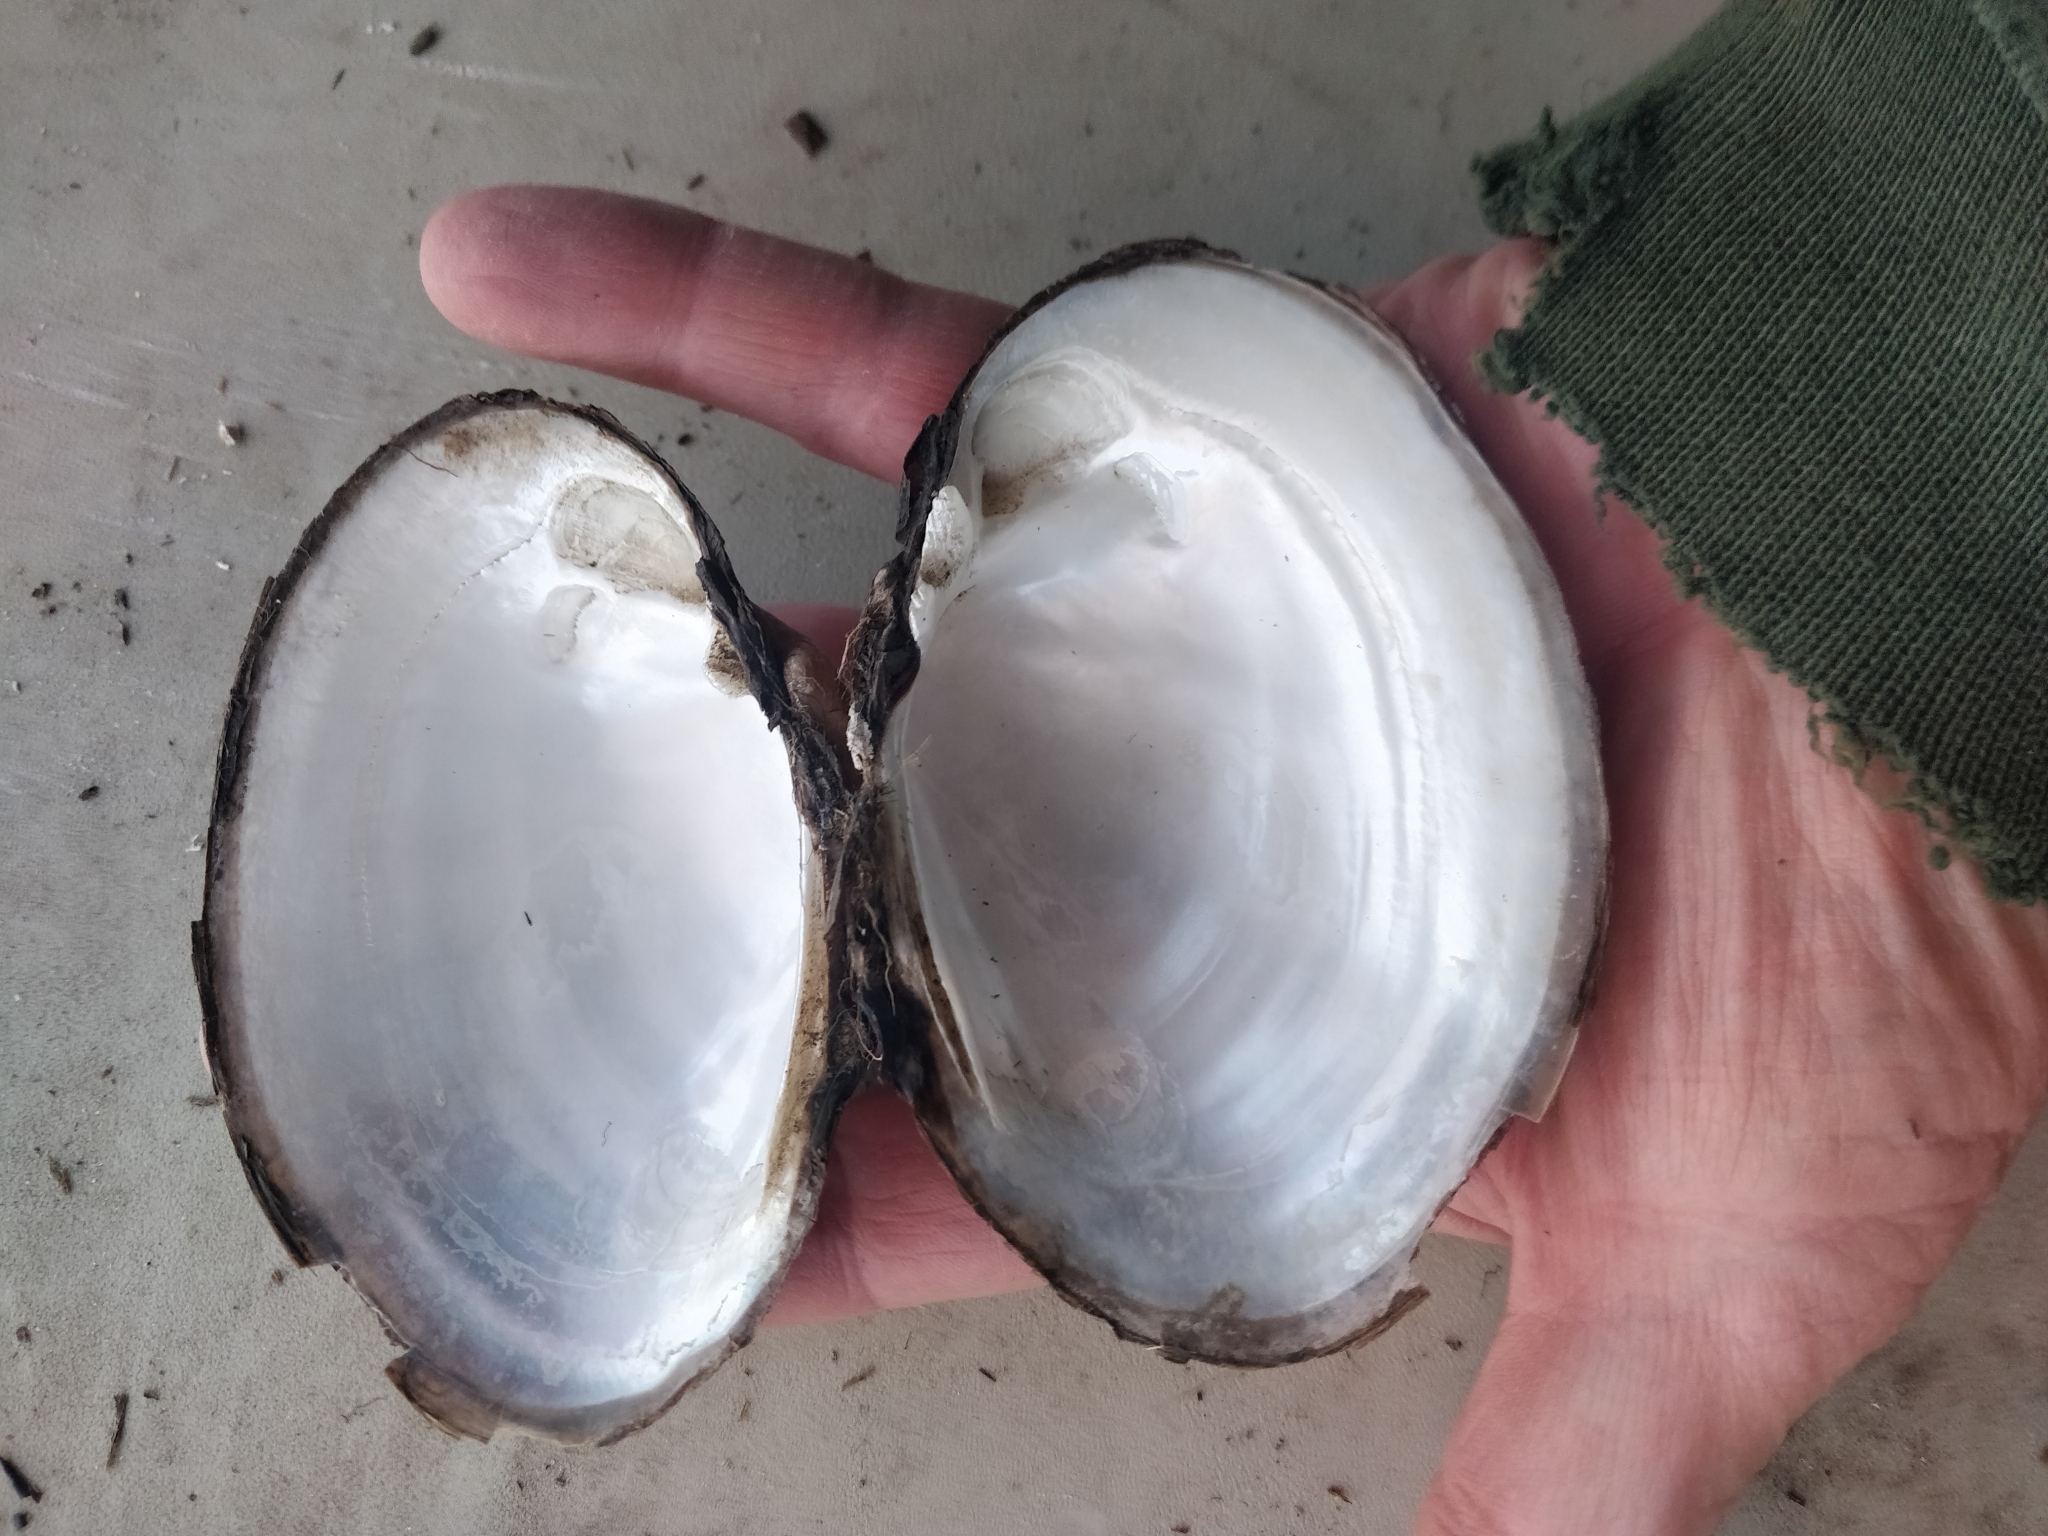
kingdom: Animalia
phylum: Mollusca
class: Bivalvia
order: Unionida
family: Unionidae
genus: Lampsilis
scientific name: Lampsilis cardium
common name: Plain pocketbook
